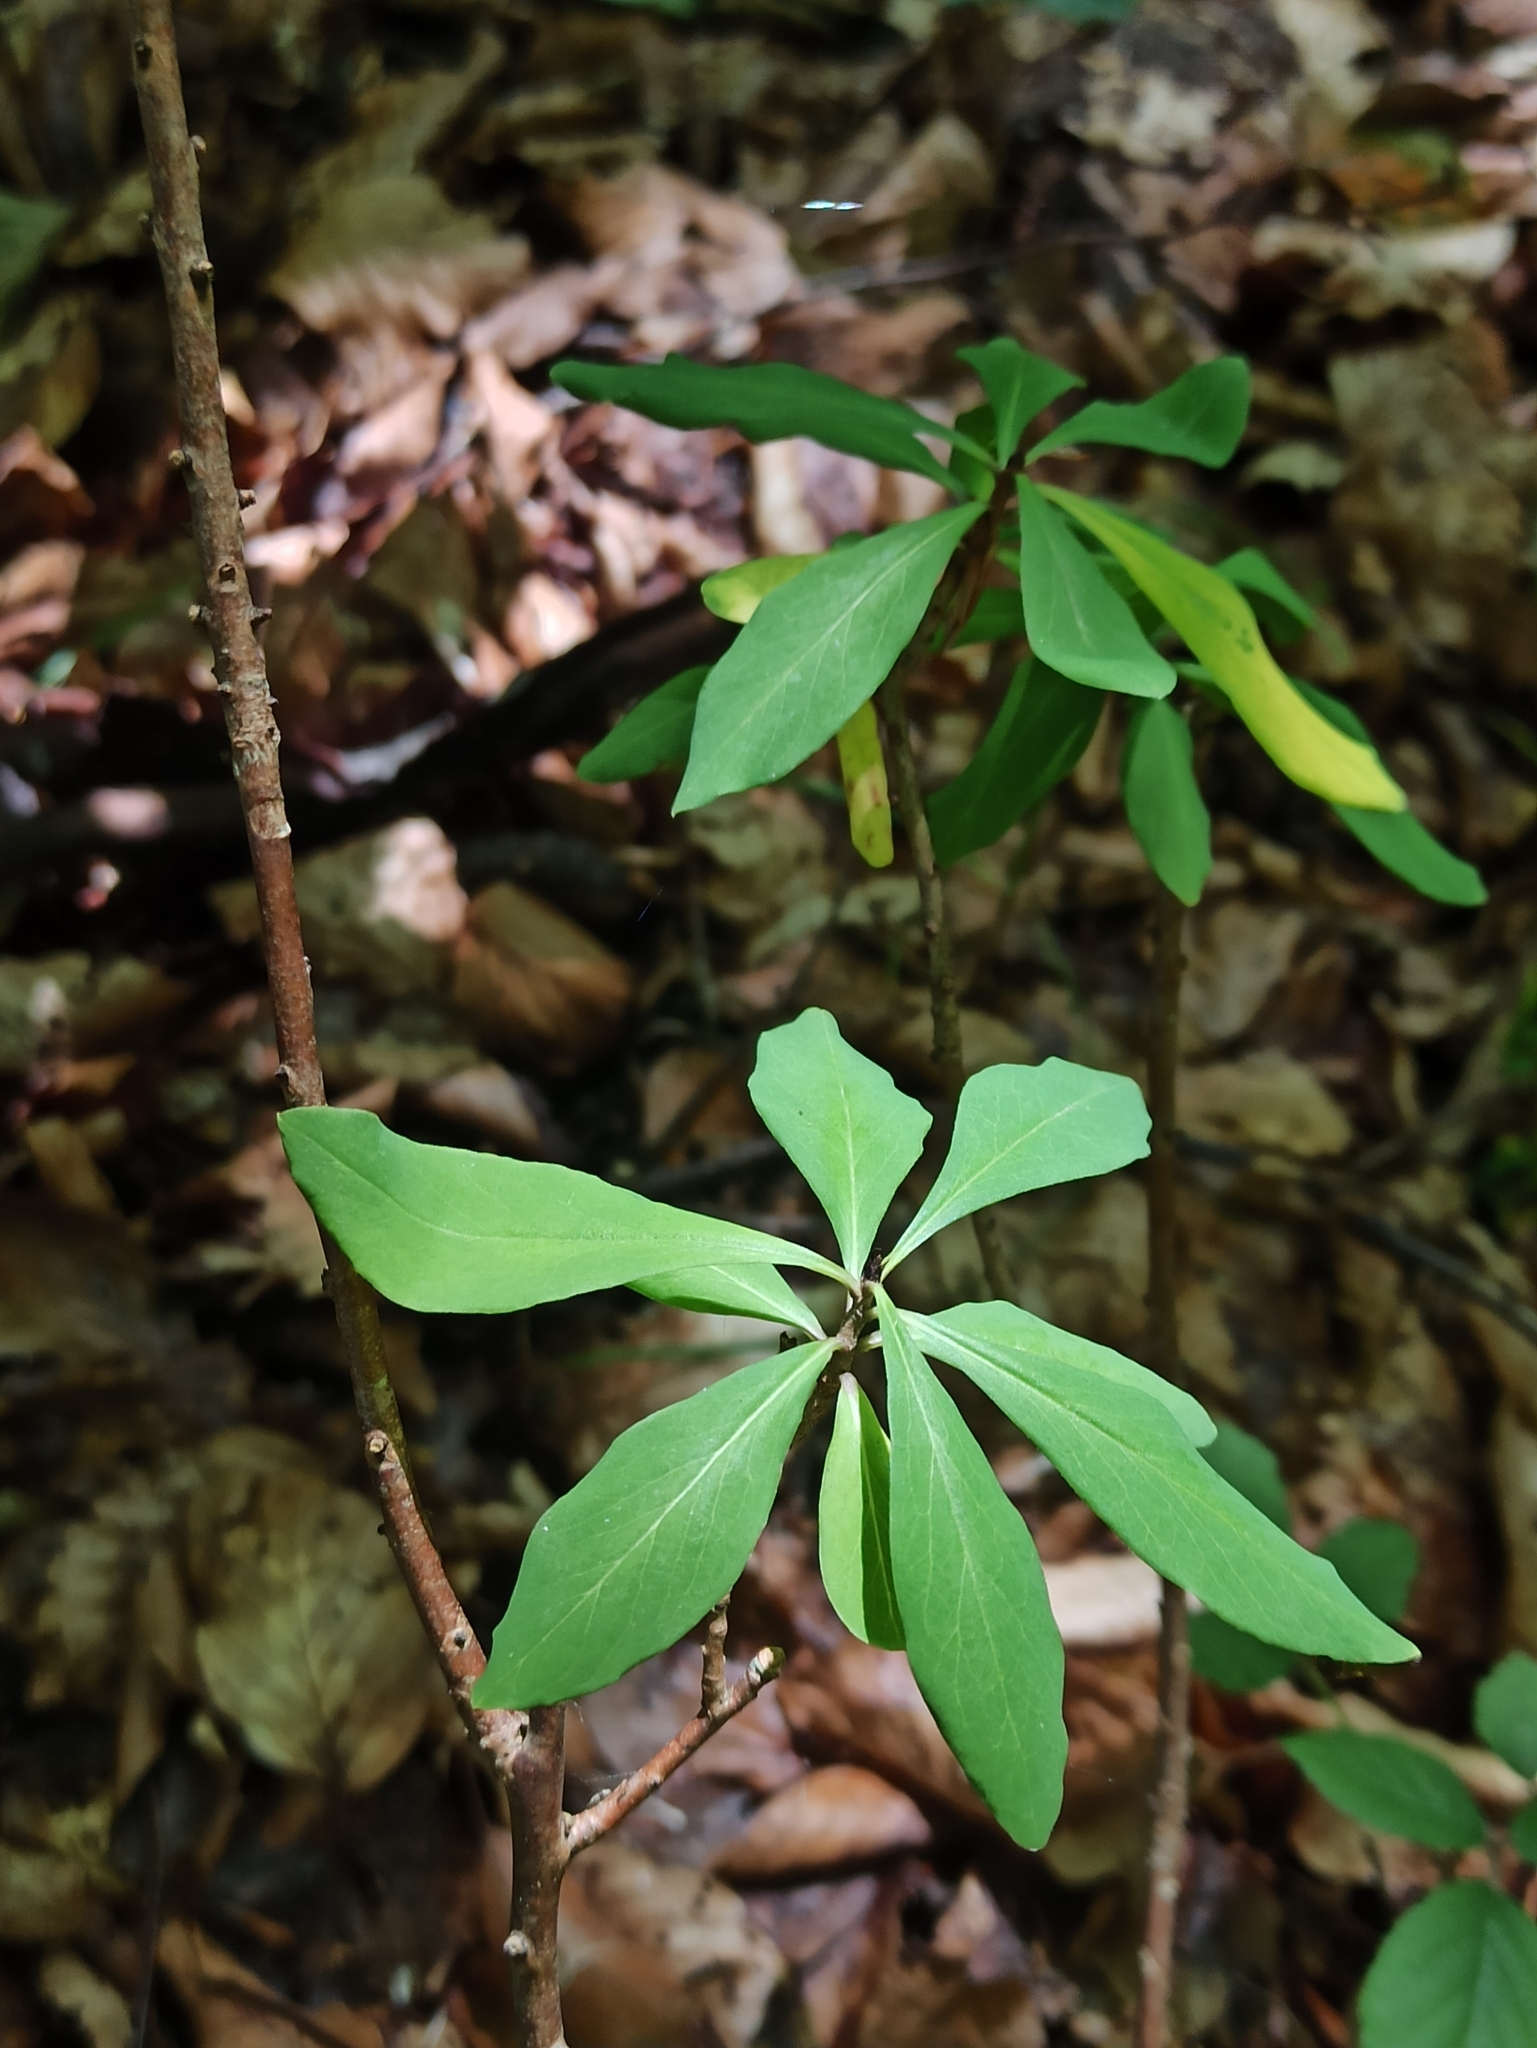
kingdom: Plantae
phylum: Tracheophyta
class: Magnoliopsida
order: Malvales
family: Thymelaeaceae
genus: Daphne
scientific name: Daphne mezereum
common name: Mezereon
